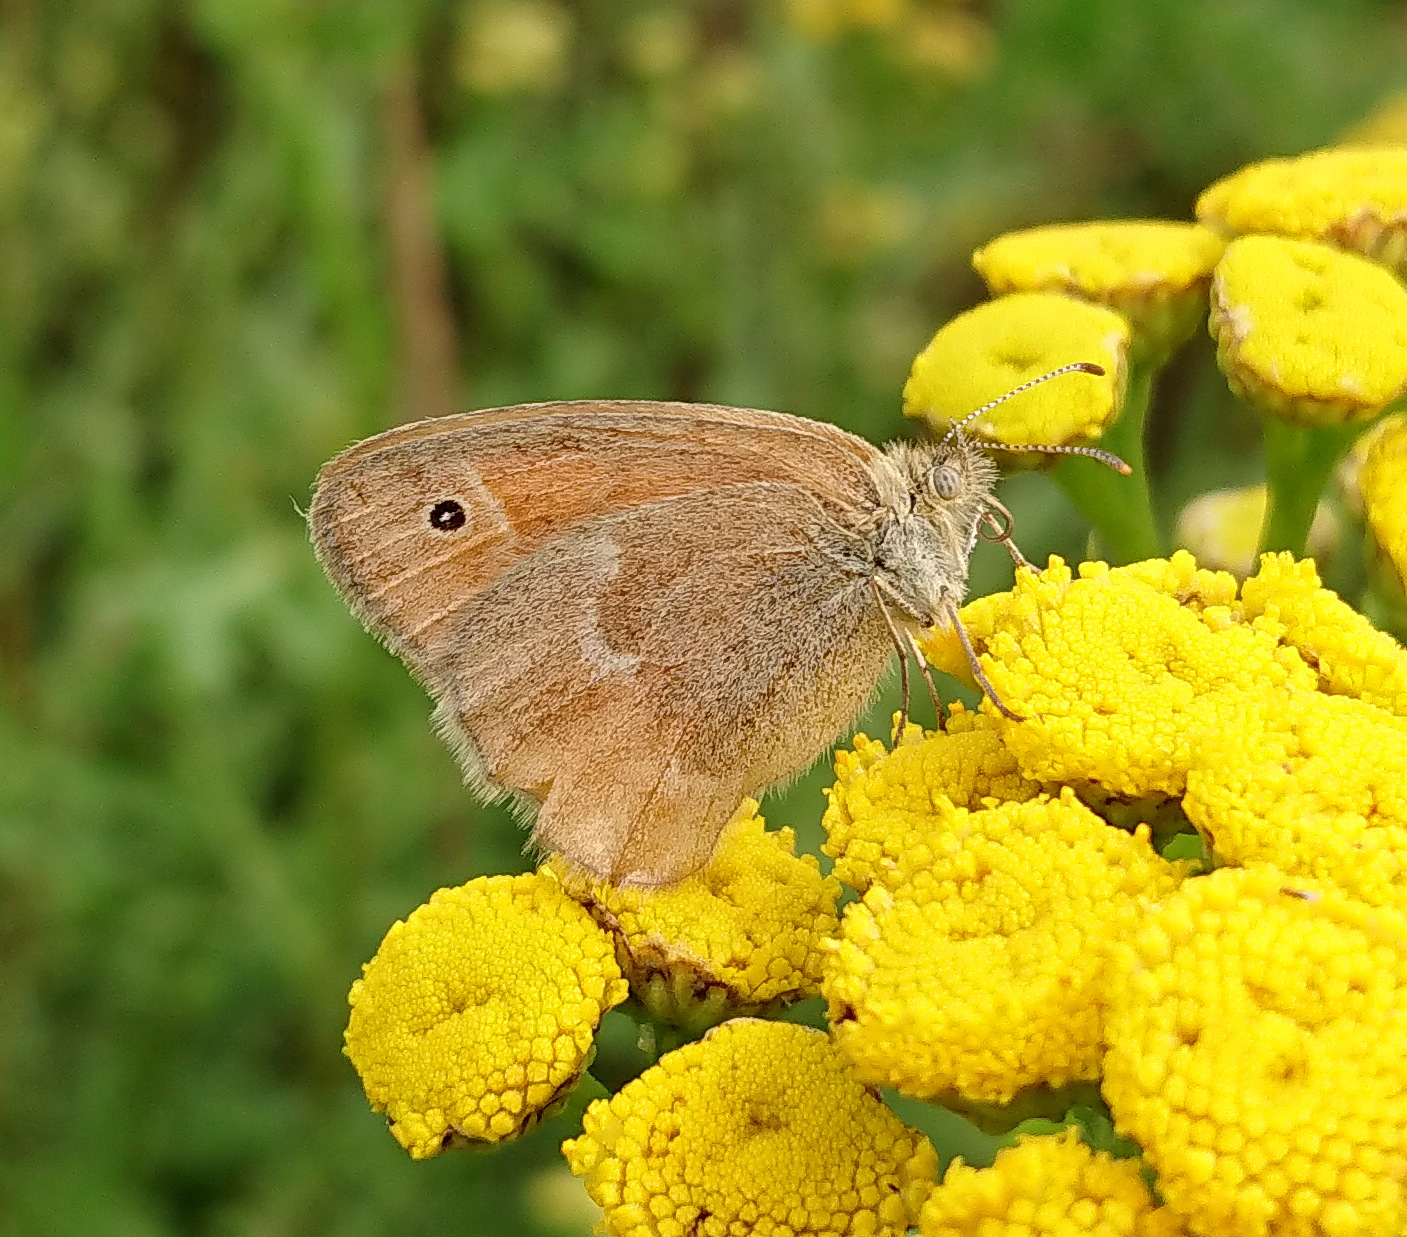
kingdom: Animalia
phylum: Arthropoda
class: Insecta
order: Lepidoptera
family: Nymphalidae
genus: Coenonympha
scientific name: Coenonympha california
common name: Common ringlet
